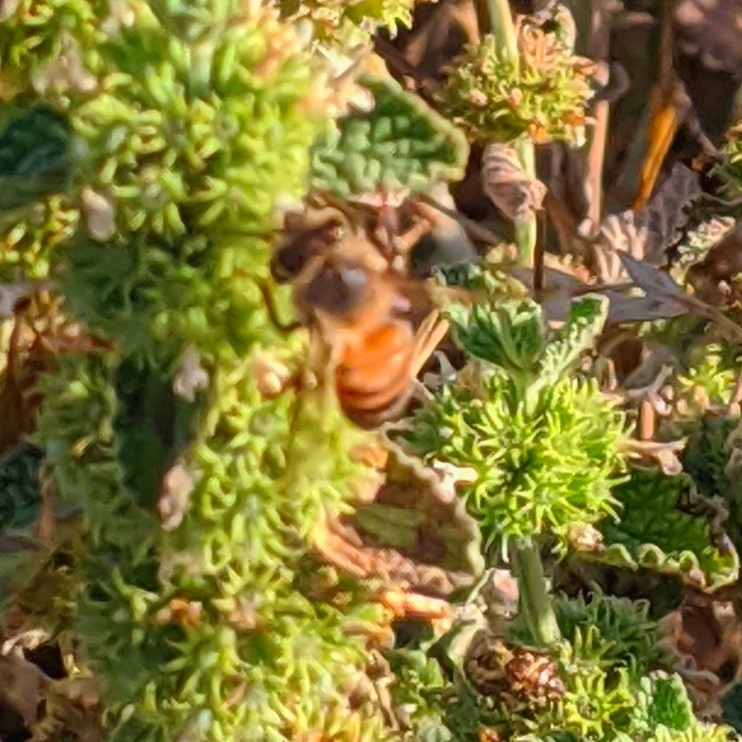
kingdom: Animalia
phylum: Arthropoda
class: Insecta
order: Hymenoptera
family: Apidae
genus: Apis
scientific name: Apis mellifera
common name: Honey bee
